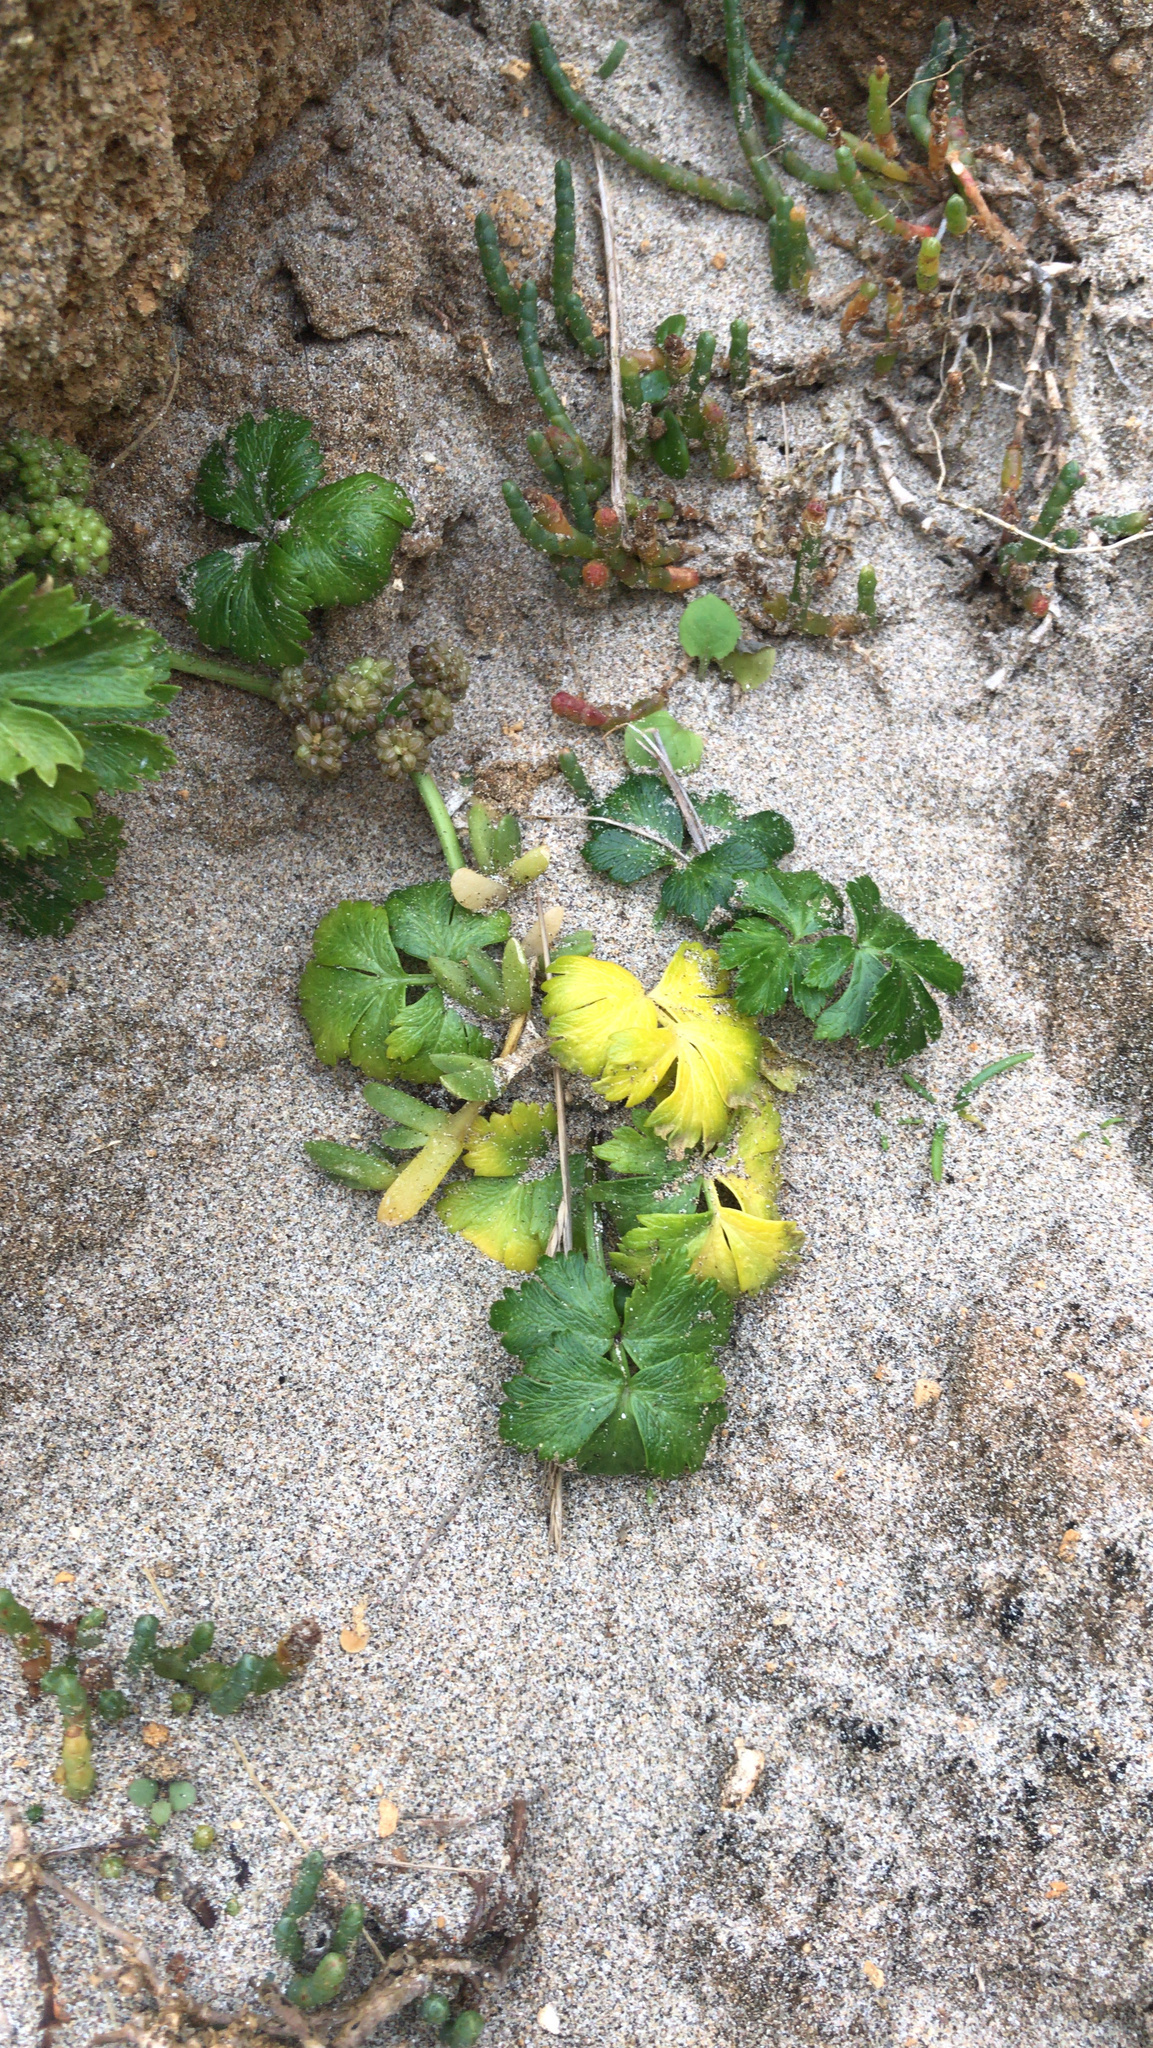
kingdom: Plantae
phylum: Tracheophyta
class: Magnoliopsida
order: Apiales
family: Apiaceae
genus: Apium
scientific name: Apium prostratum
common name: Prostrate marshwort
